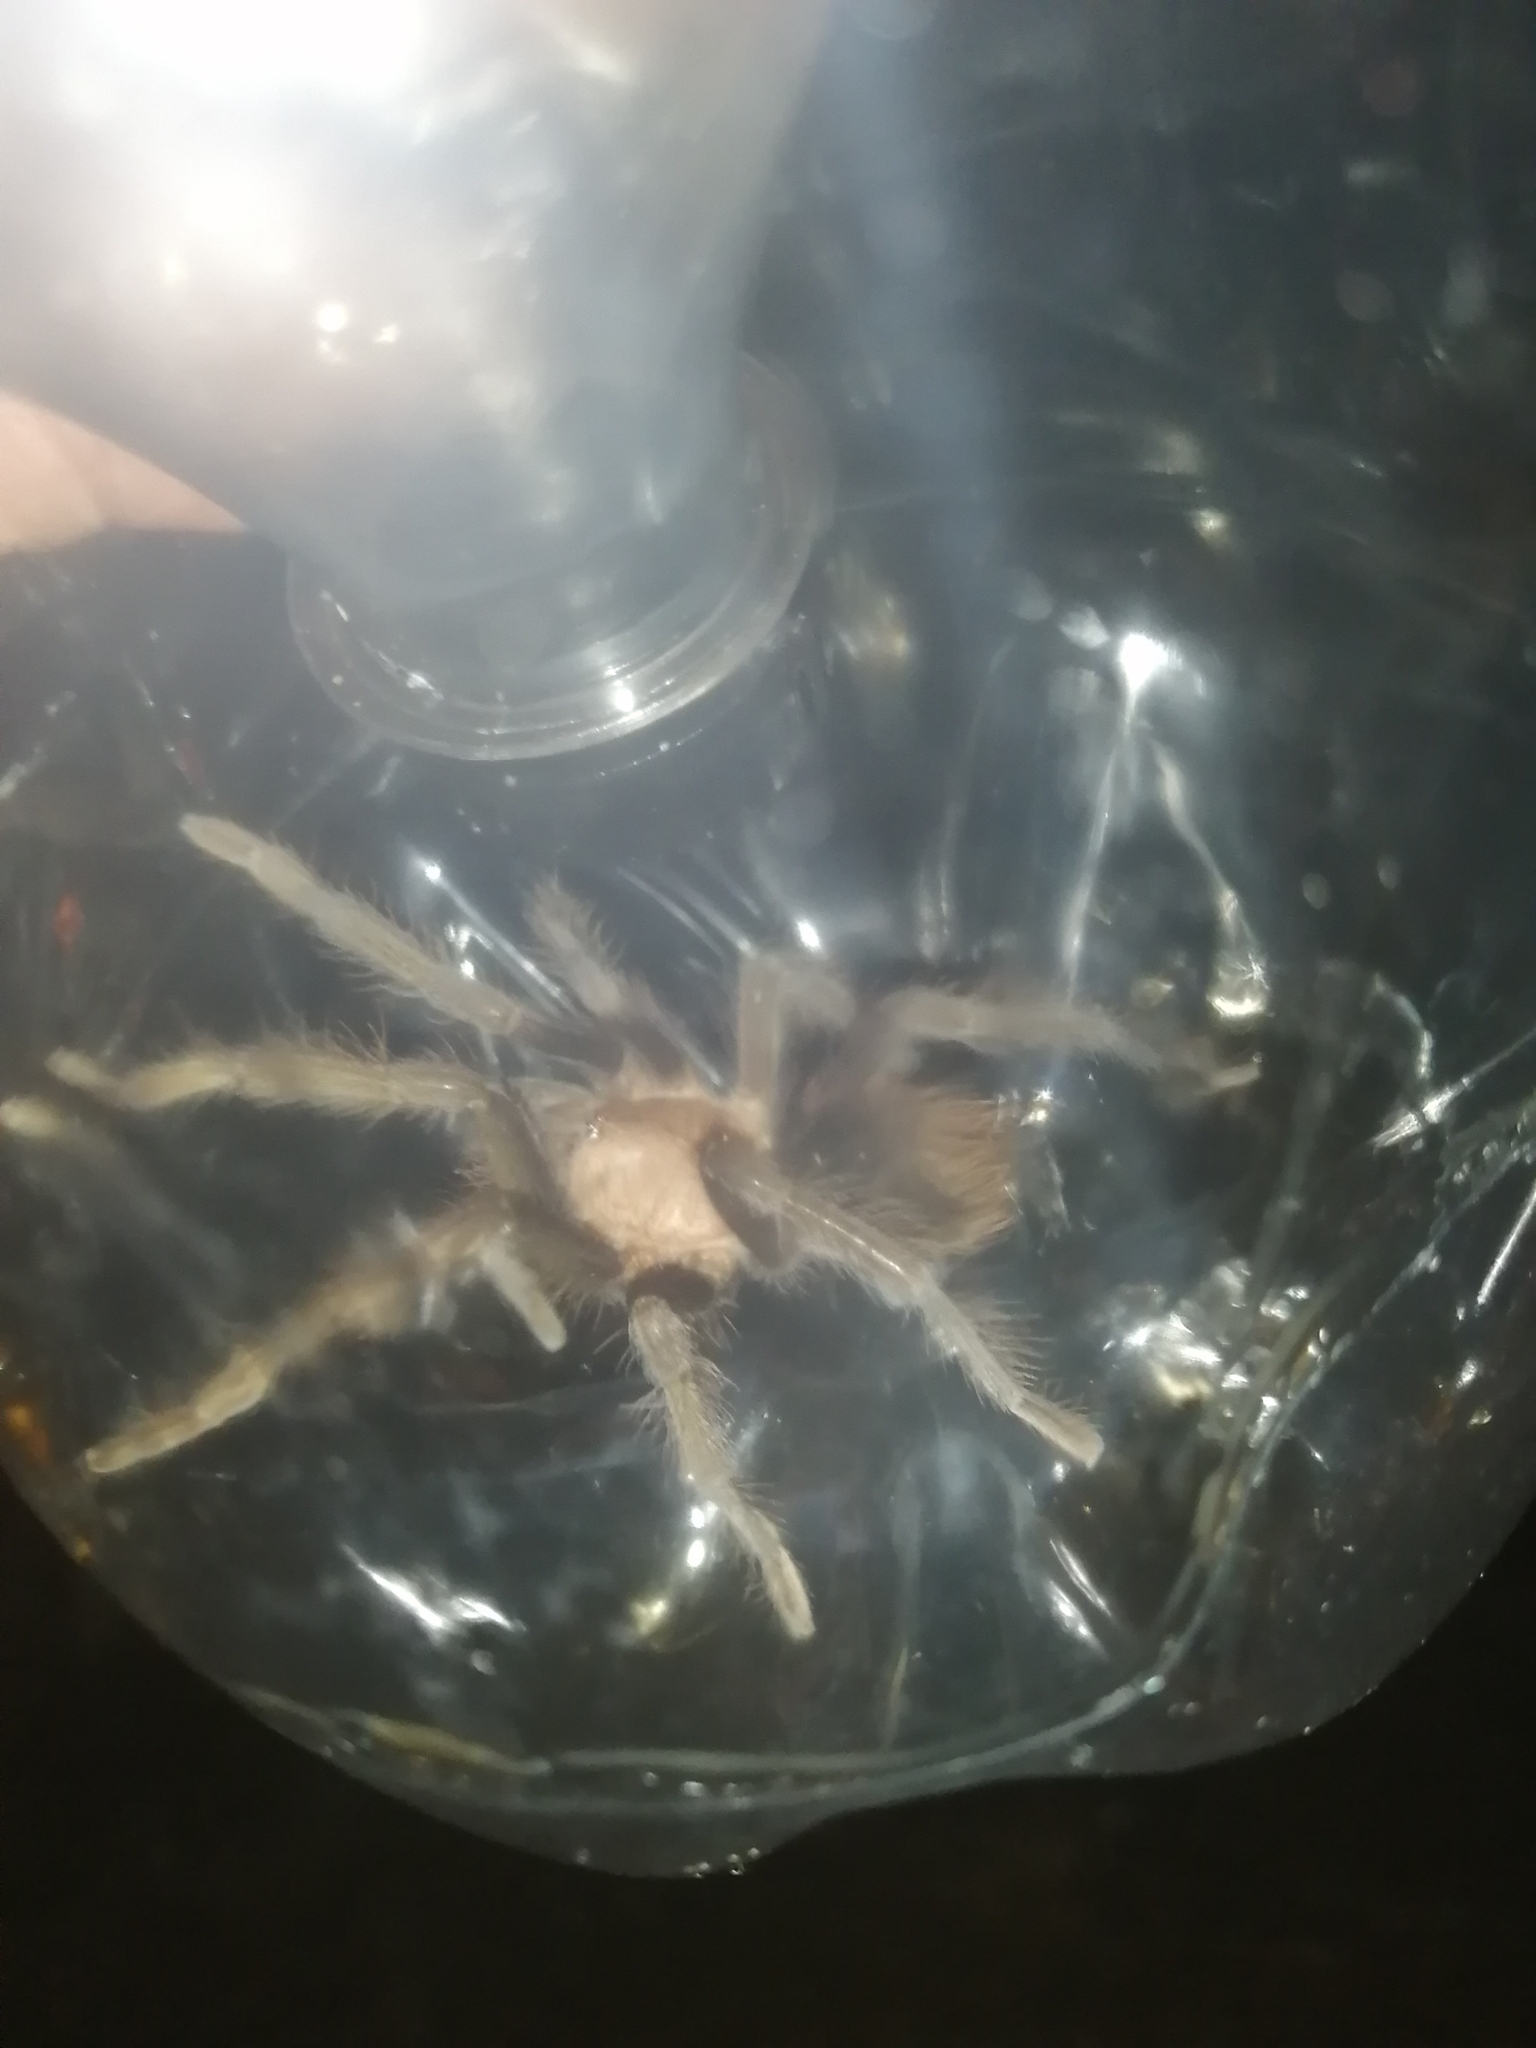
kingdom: Animalia
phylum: Arthropoda
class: Arachnida
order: Araneae
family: Theraphosidae
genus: Tliltocatl
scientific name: Tliltocatl epicureanus
